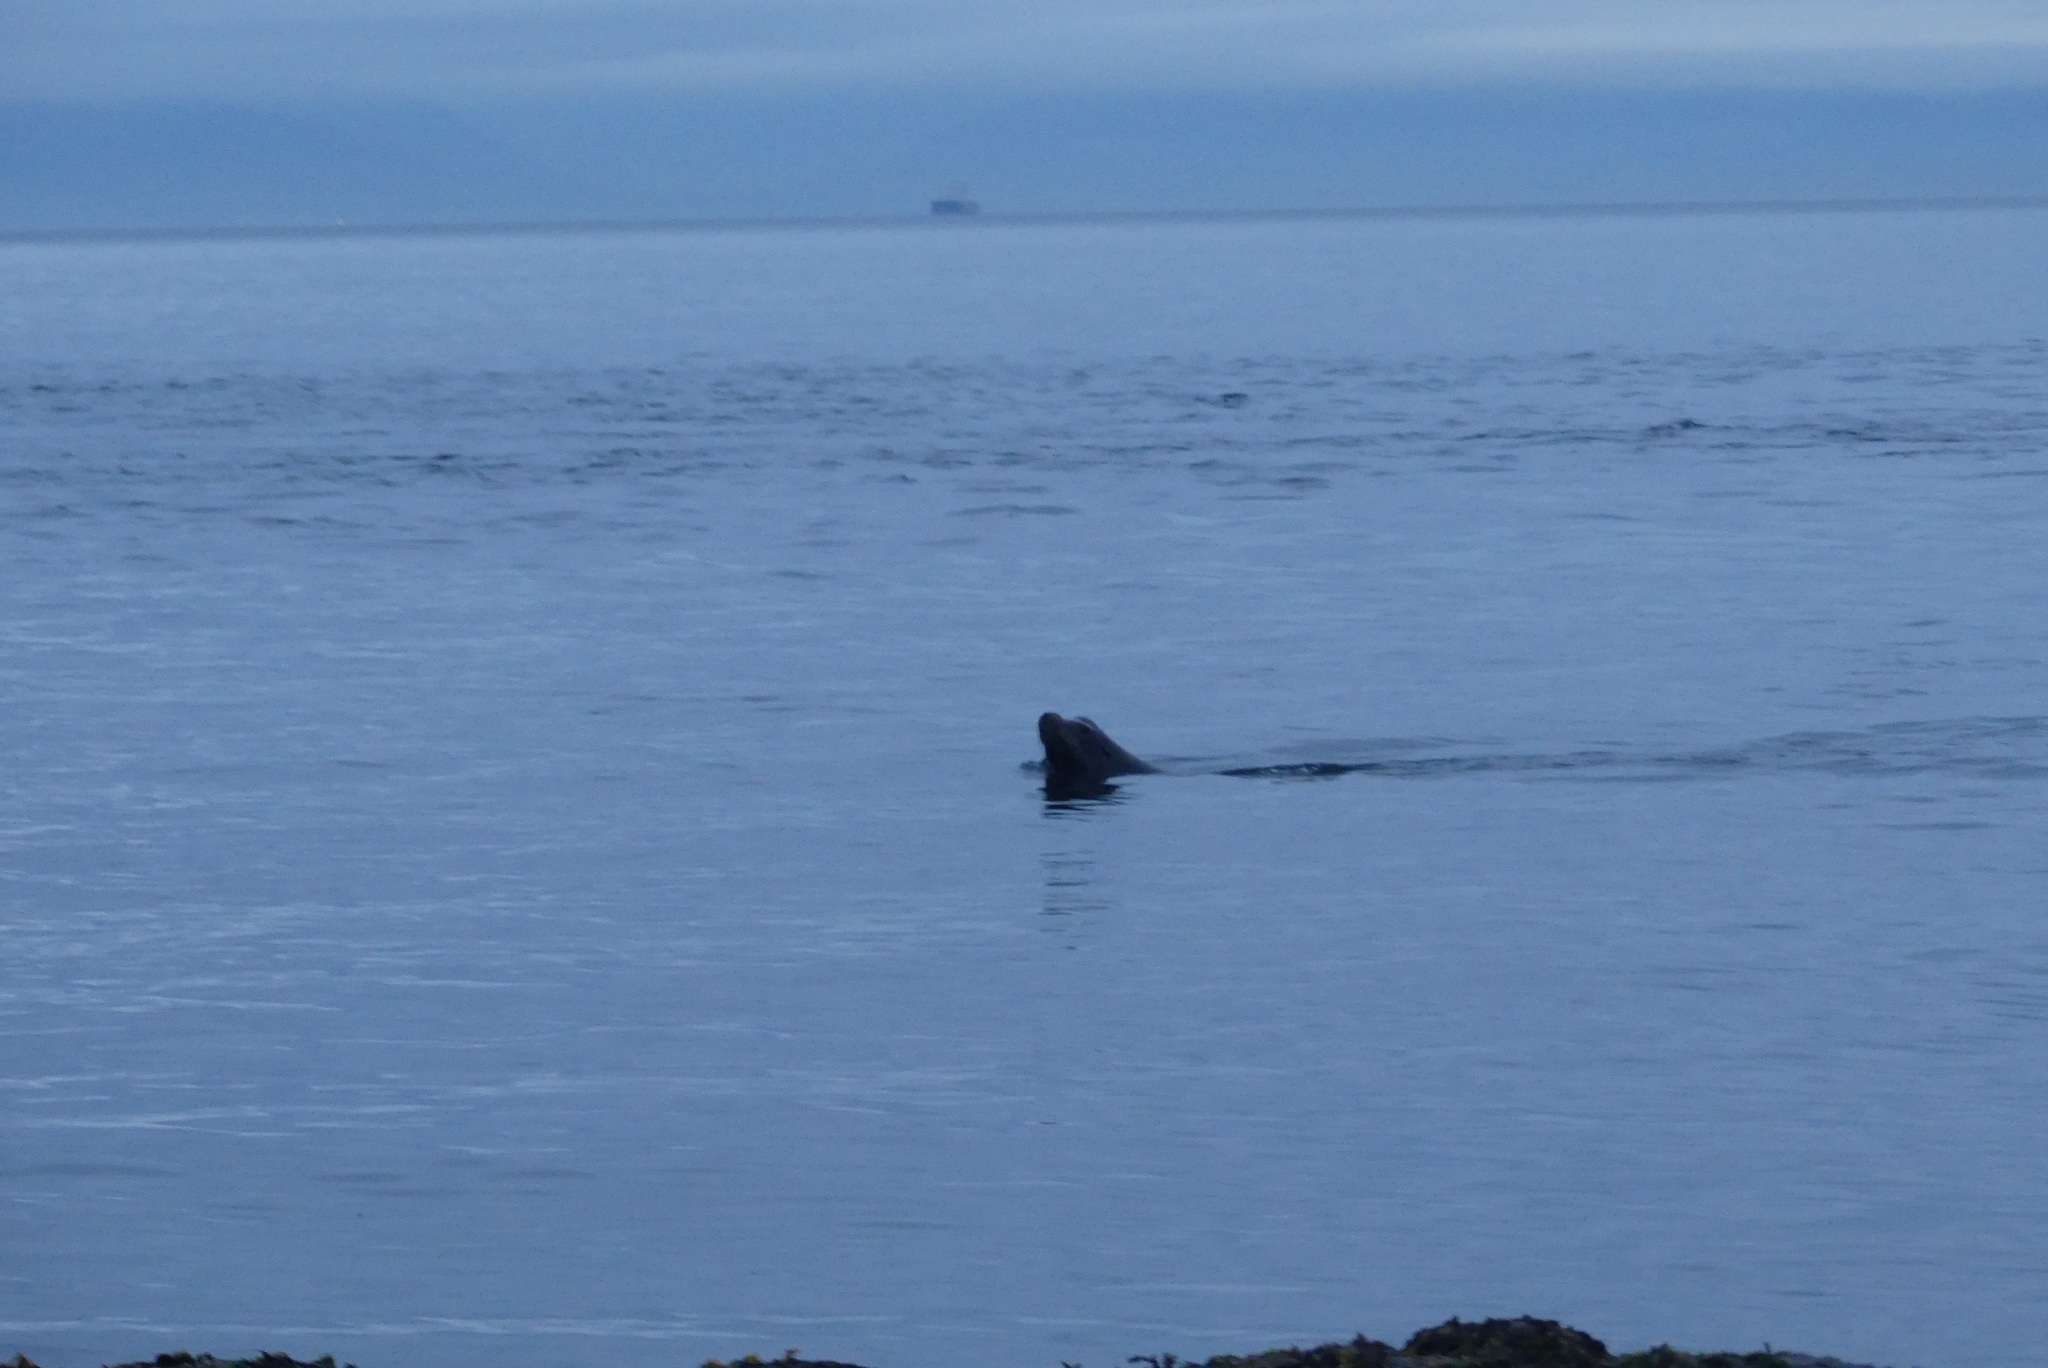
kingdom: Animalia
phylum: Chordata
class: Mammalia
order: Carnivora
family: Otariidae
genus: Zalophus
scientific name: Zalophus californianus
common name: California sea lion
